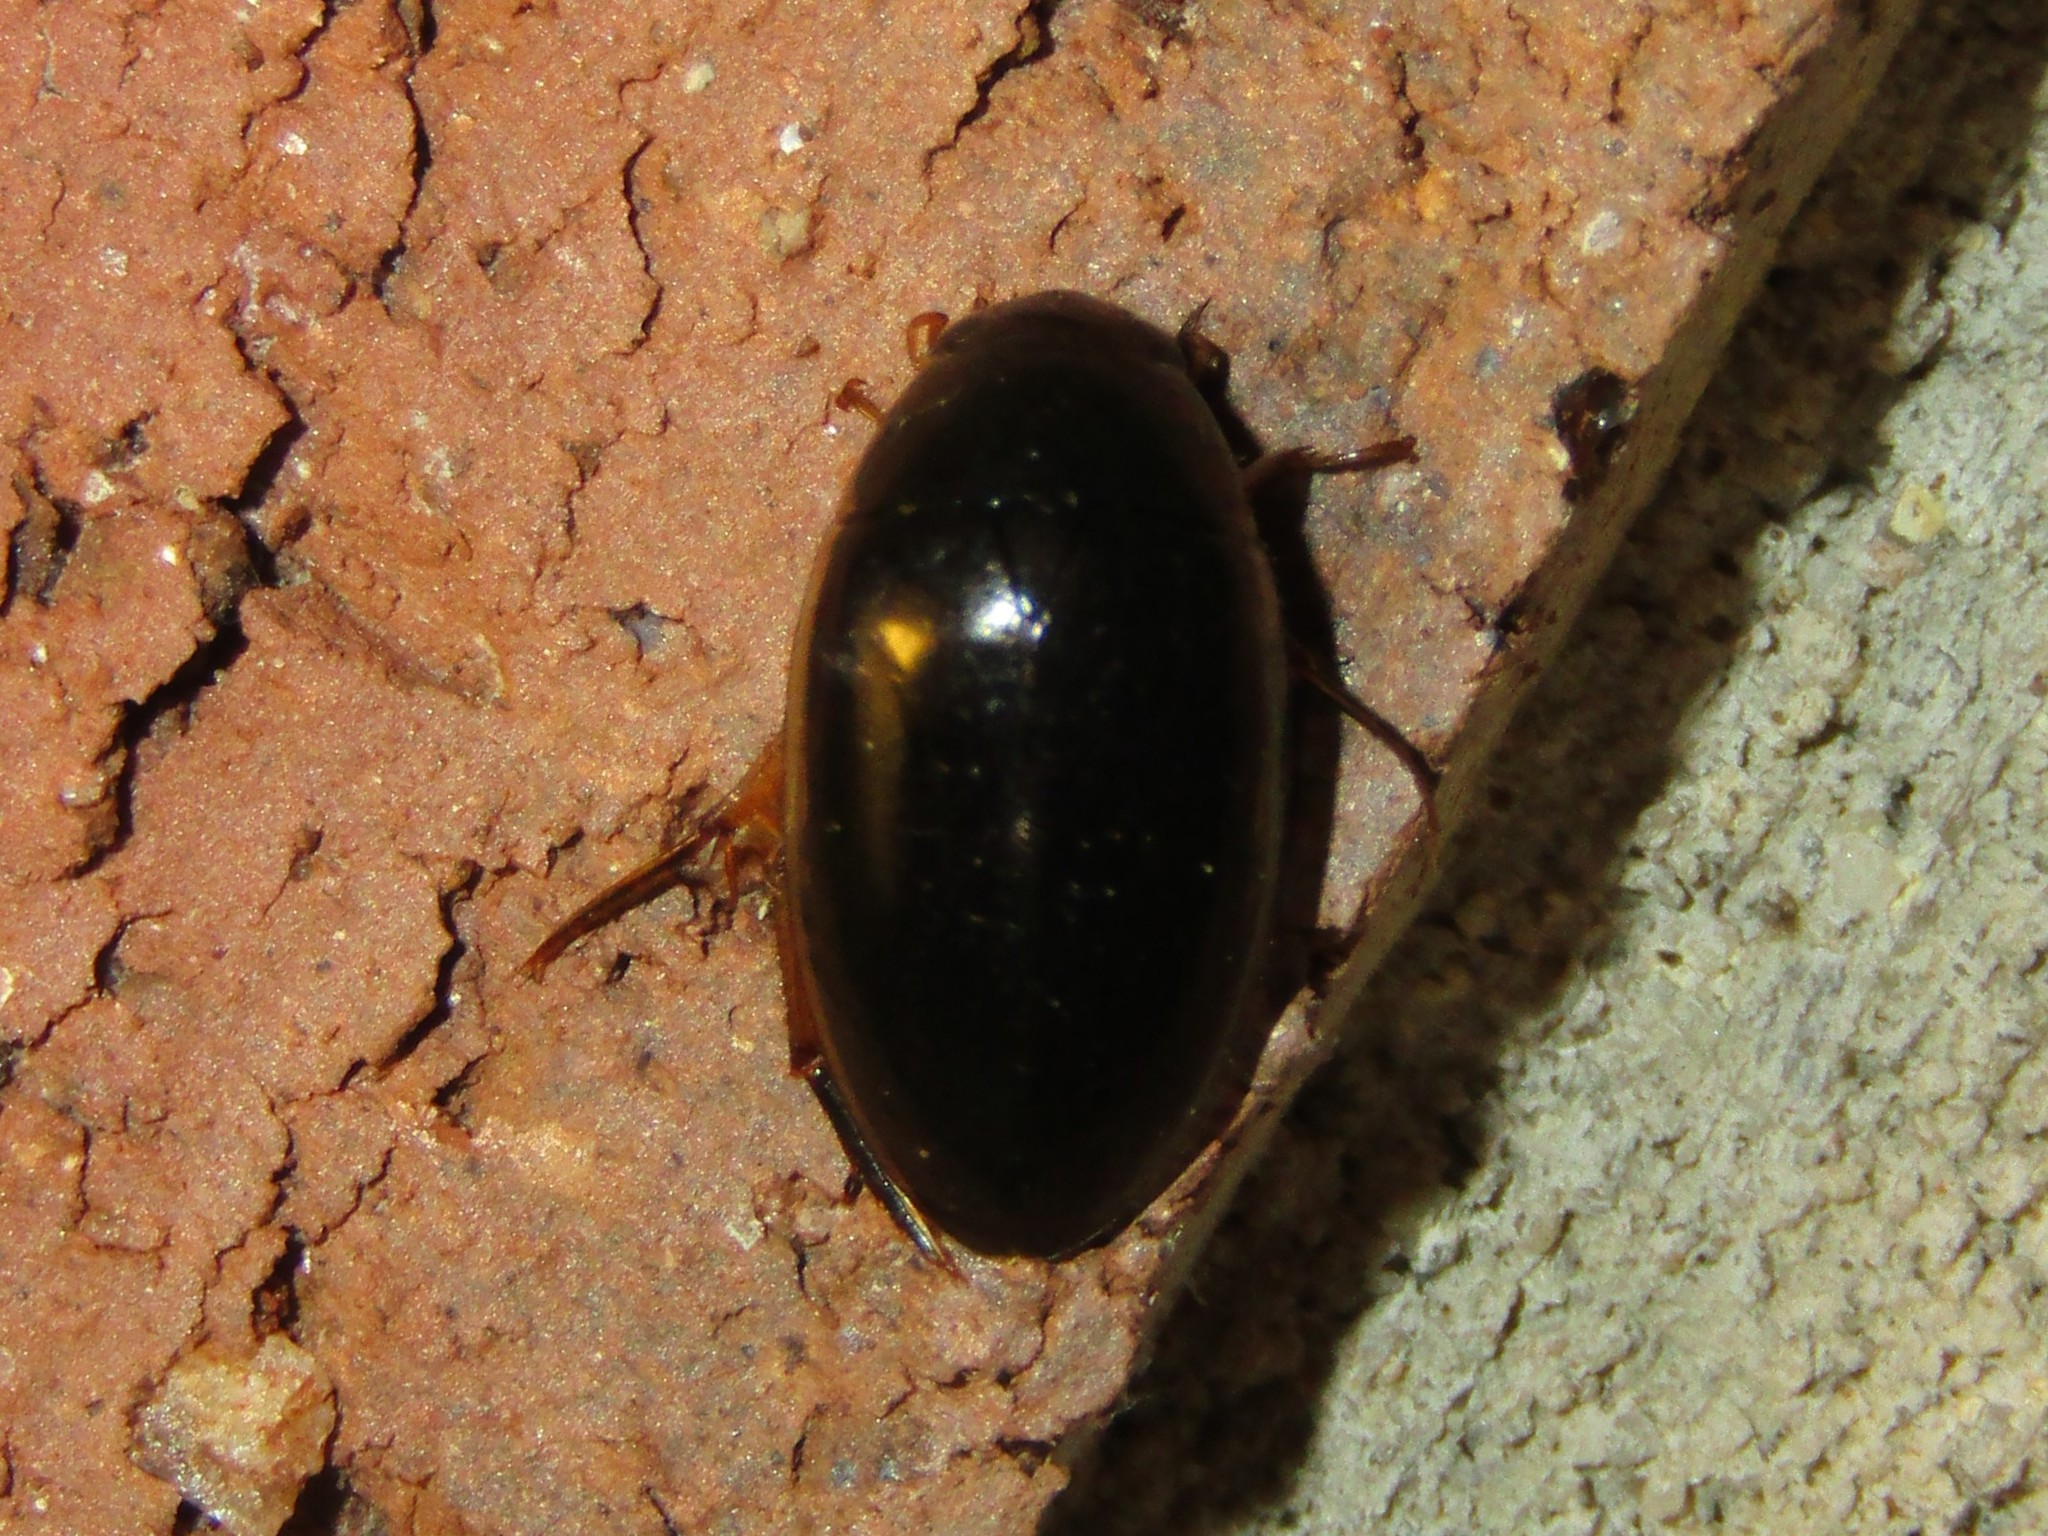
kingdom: Animalia
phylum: Arthropoda
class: Insecta
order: Coleoptera
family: Hydrophilidae
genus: Tropisternus
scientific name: Tropisternus lateralis
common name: Lateral-banded water scavenger beetle
